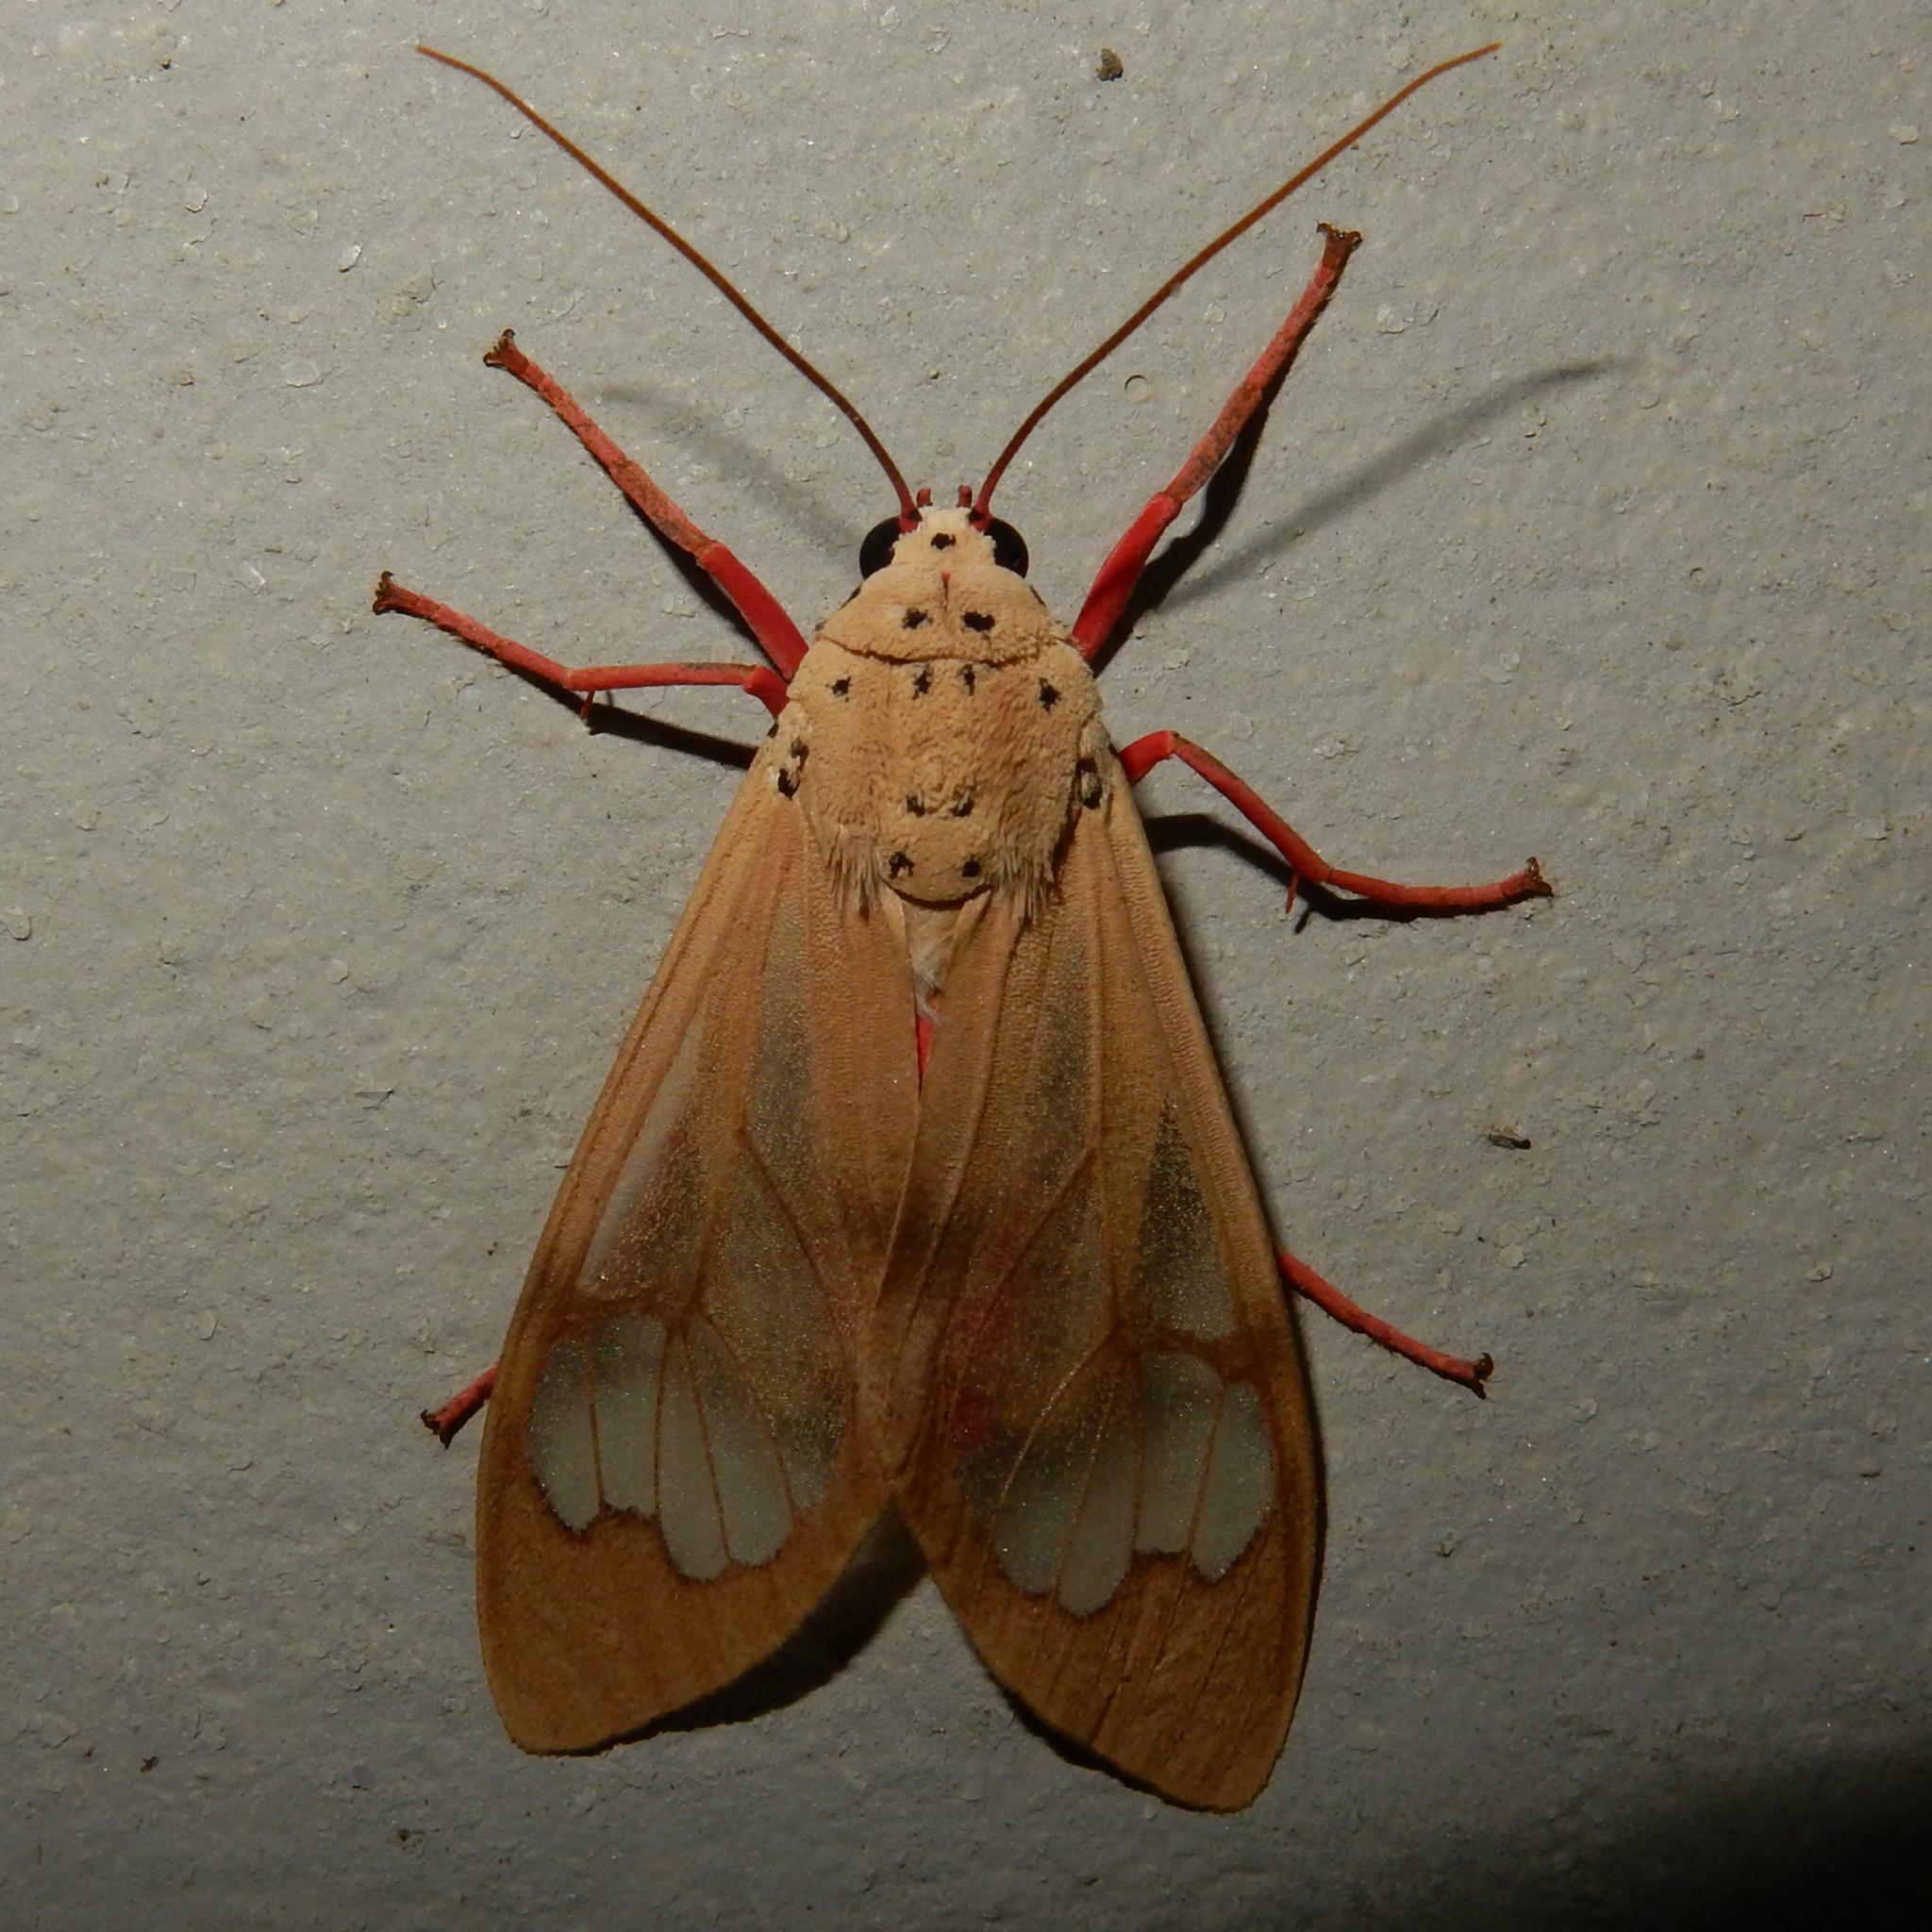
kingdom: Animalia
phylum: Arthropoda
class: Insecta
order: Lepidoptera
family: Erebidae
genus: Amerila
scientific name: Amerila bauri
